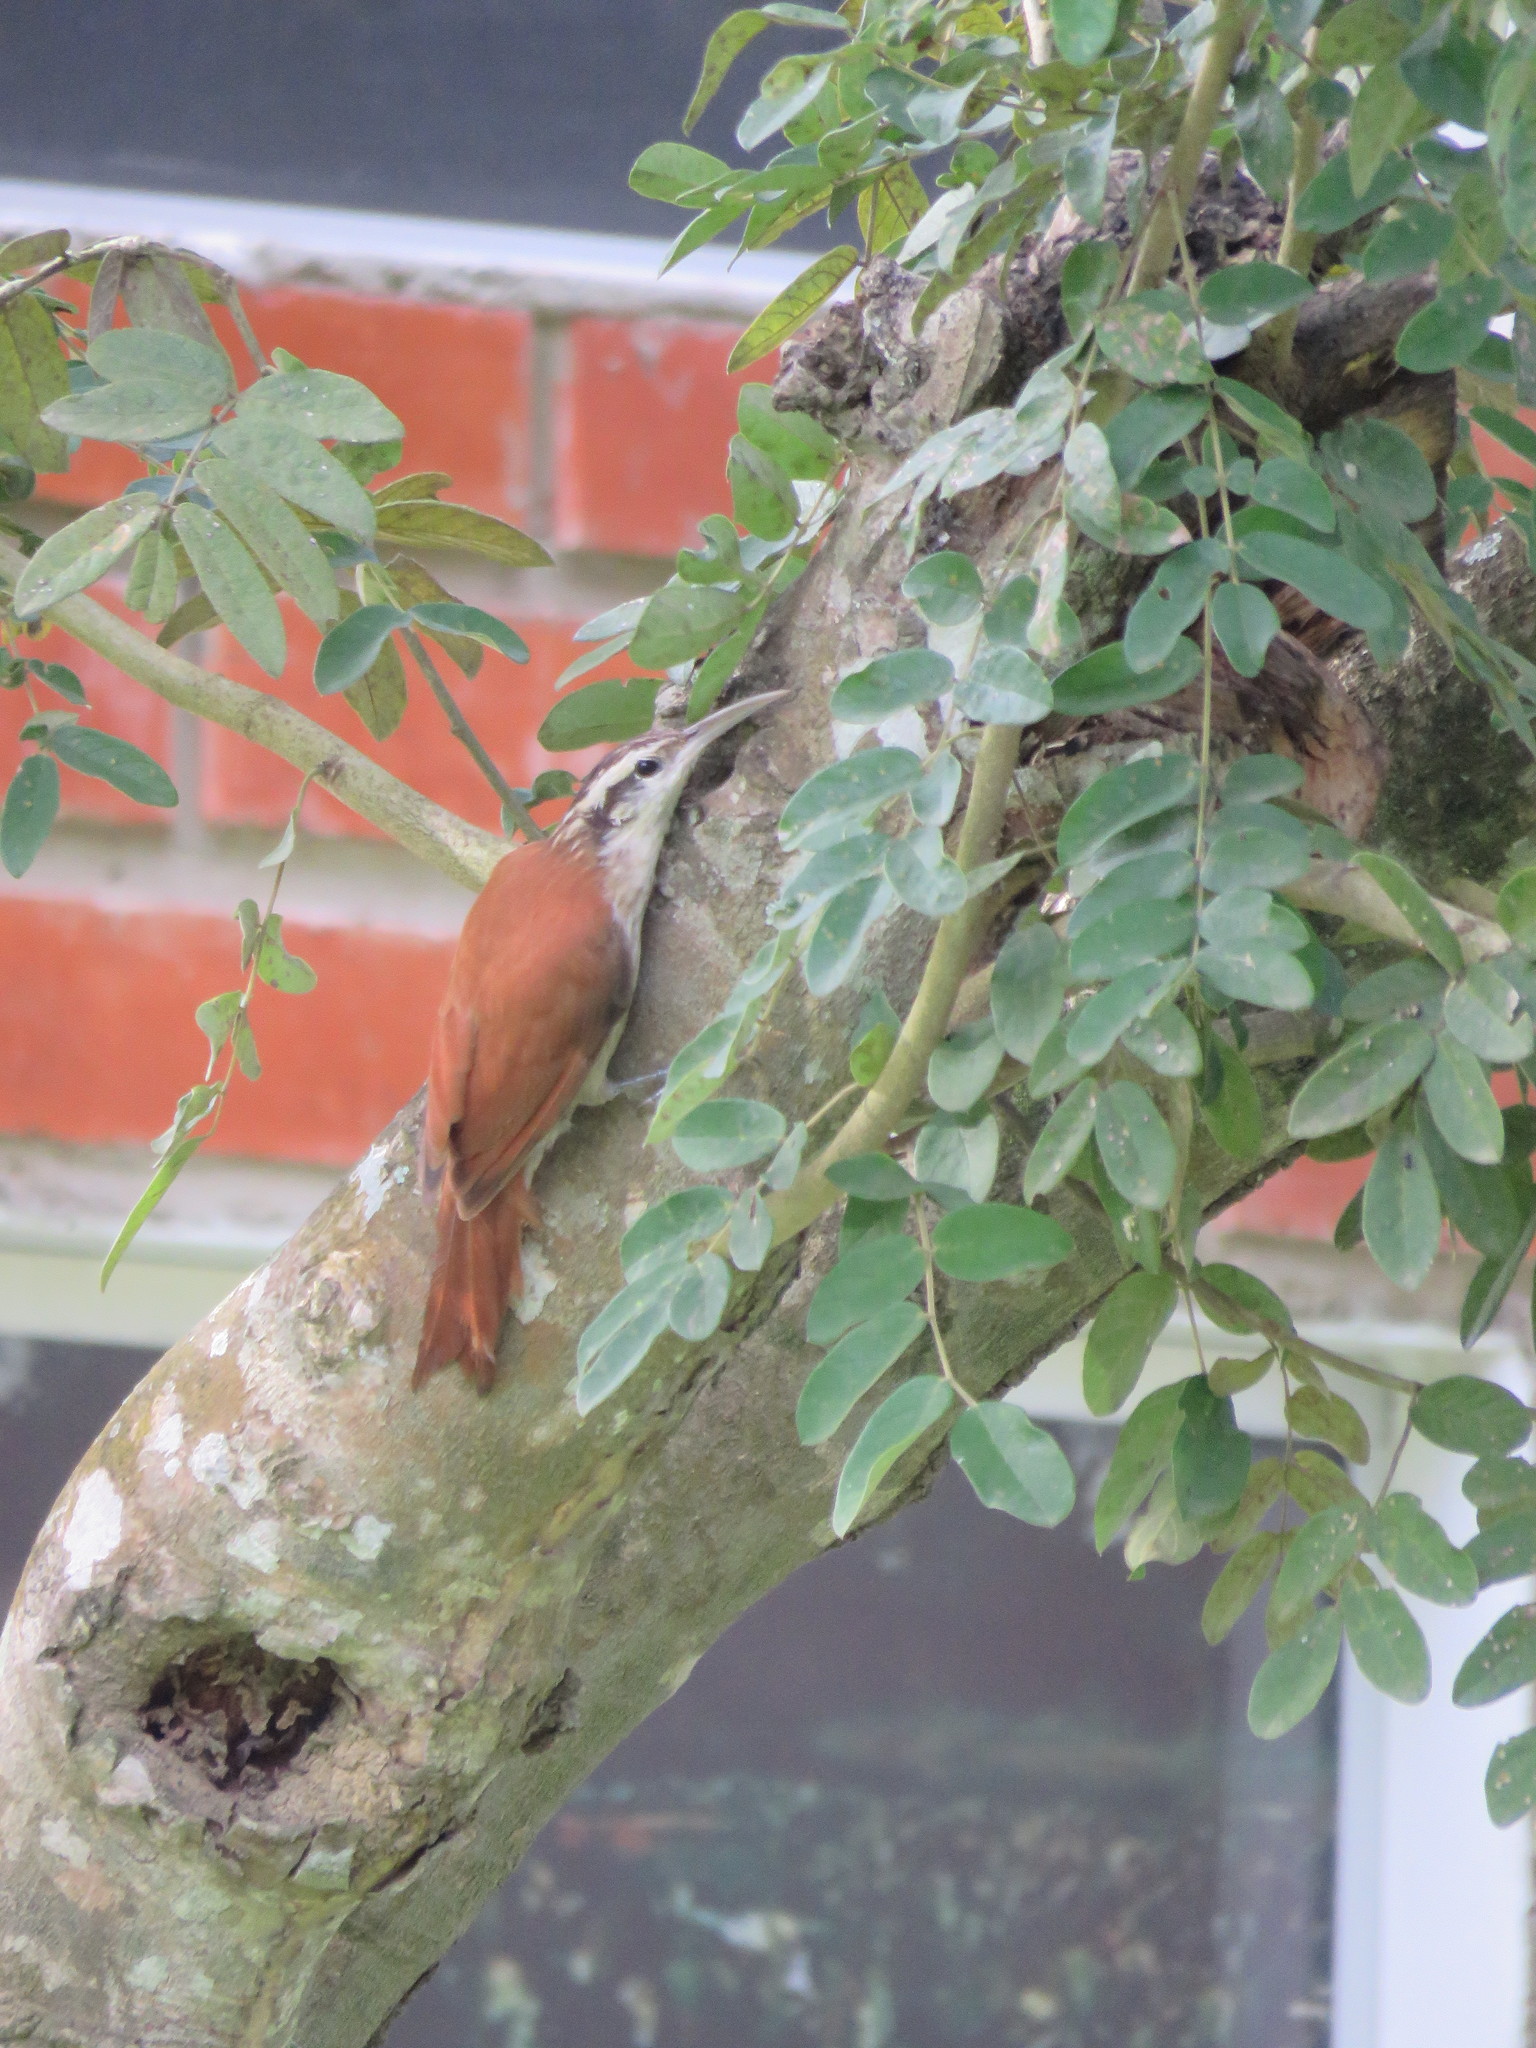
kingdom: Animalia
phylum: Chordata
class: Aves
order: Passeriformes
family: Furnariidae
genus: Lepidocolaptes
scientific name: Lepidocolaptes angustirostris
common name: Narrow-billed woodcreeper
